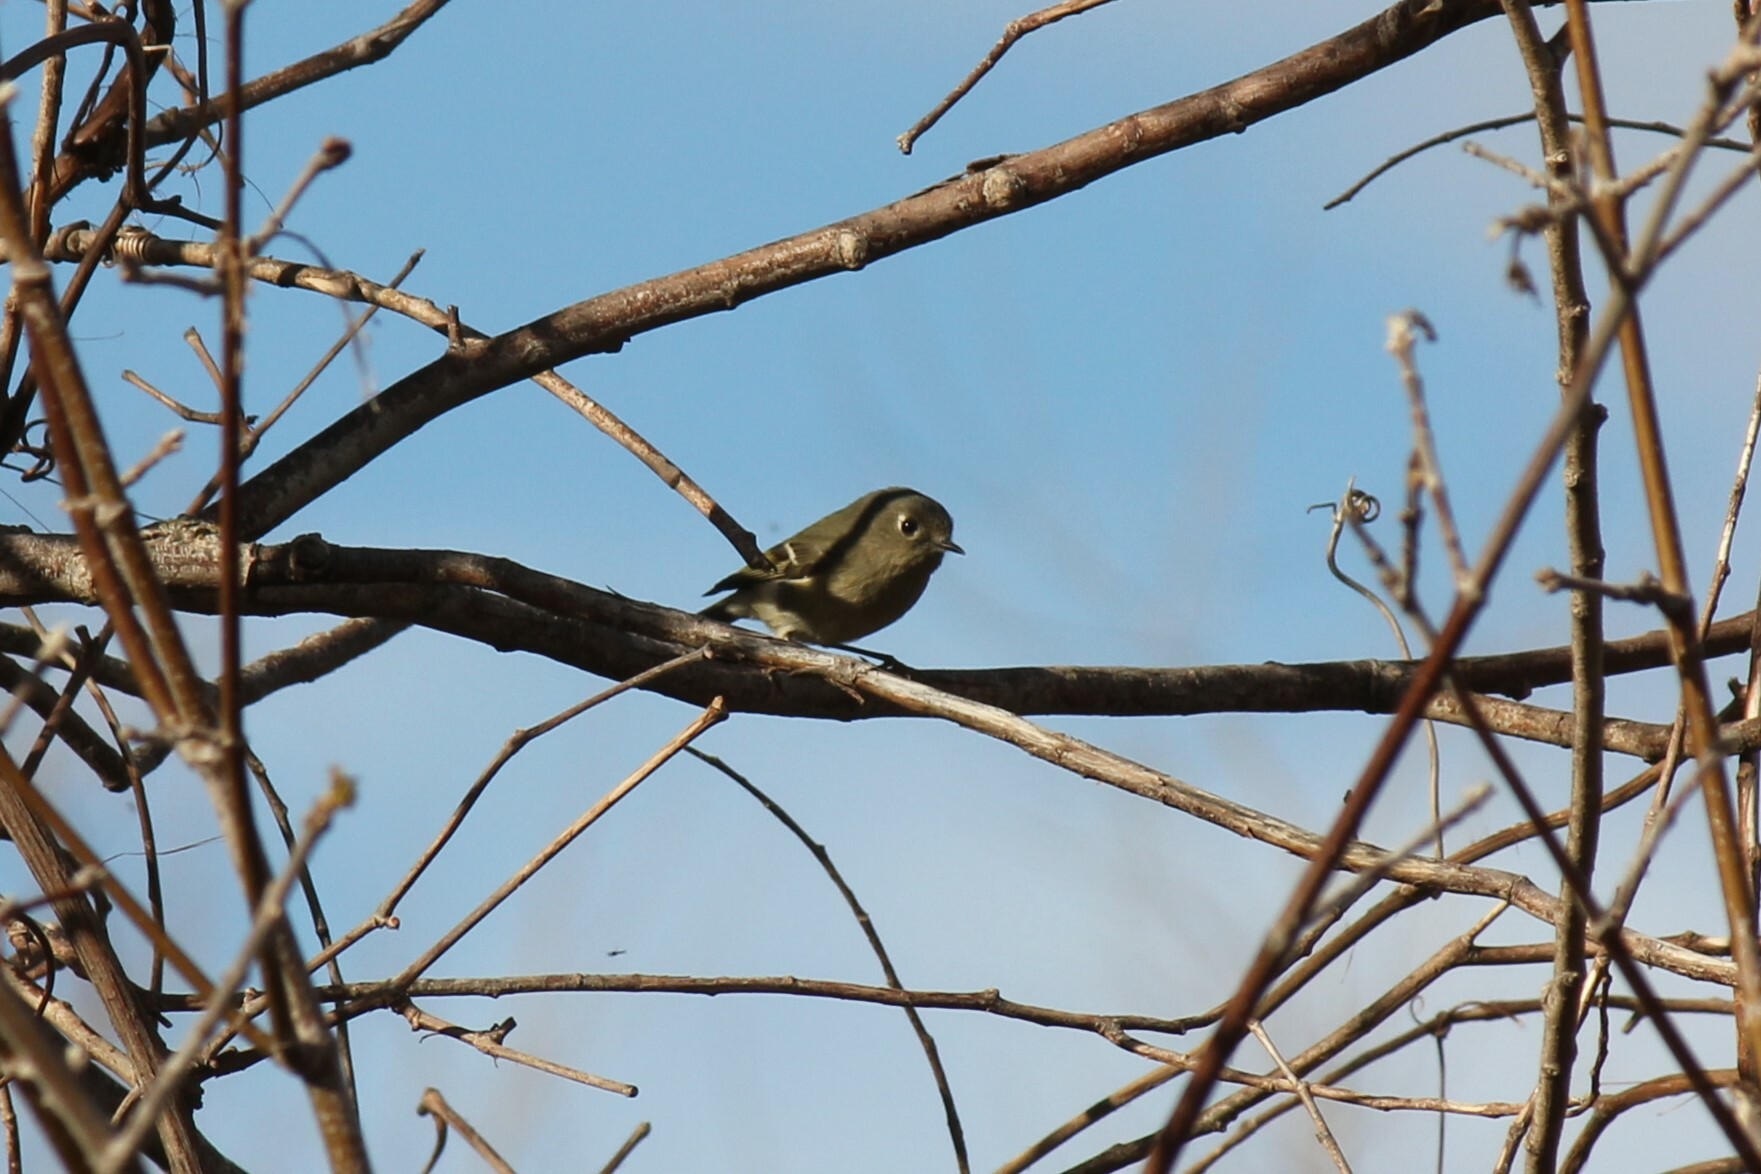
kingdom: Animalia
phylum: Chordata
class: Aves
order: Passeriformes
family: Regulidae
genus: Regulus
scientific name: Regulus calendula
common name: Ruby-crowned kinglet
